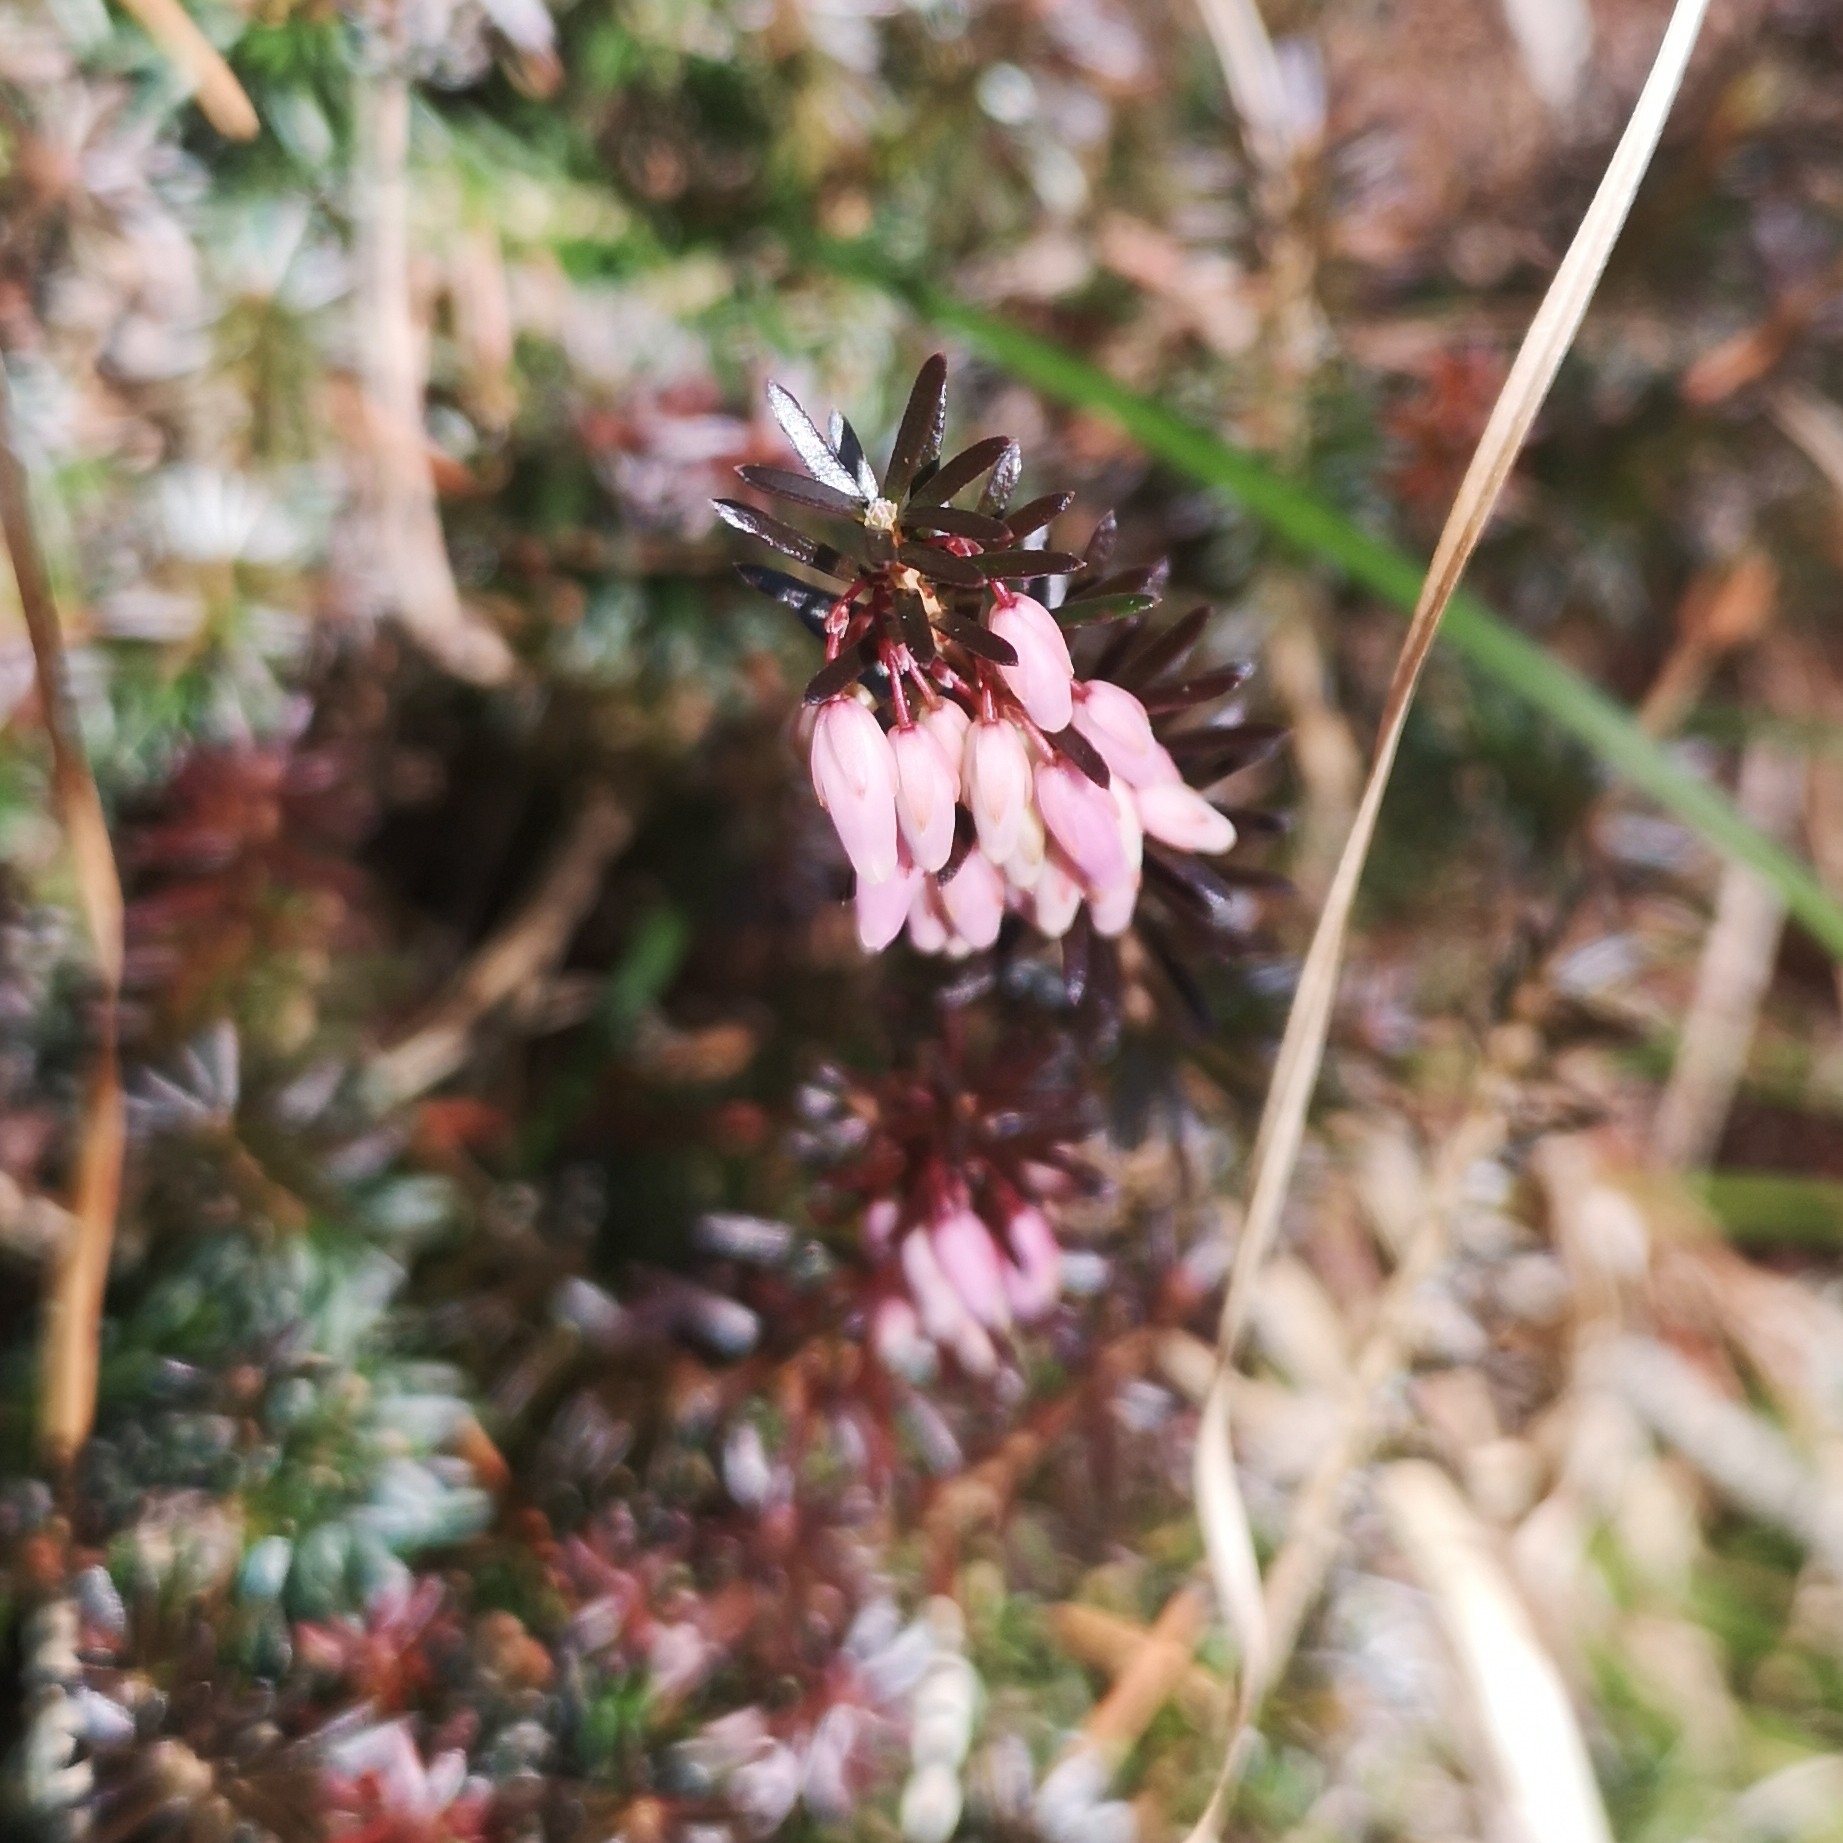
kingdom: Plantae
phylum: Tracheophyta
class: Magnoliopsida
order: Ericales
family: Ericaceae
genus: Erica
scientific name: Erica carnea
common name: Winter heath
